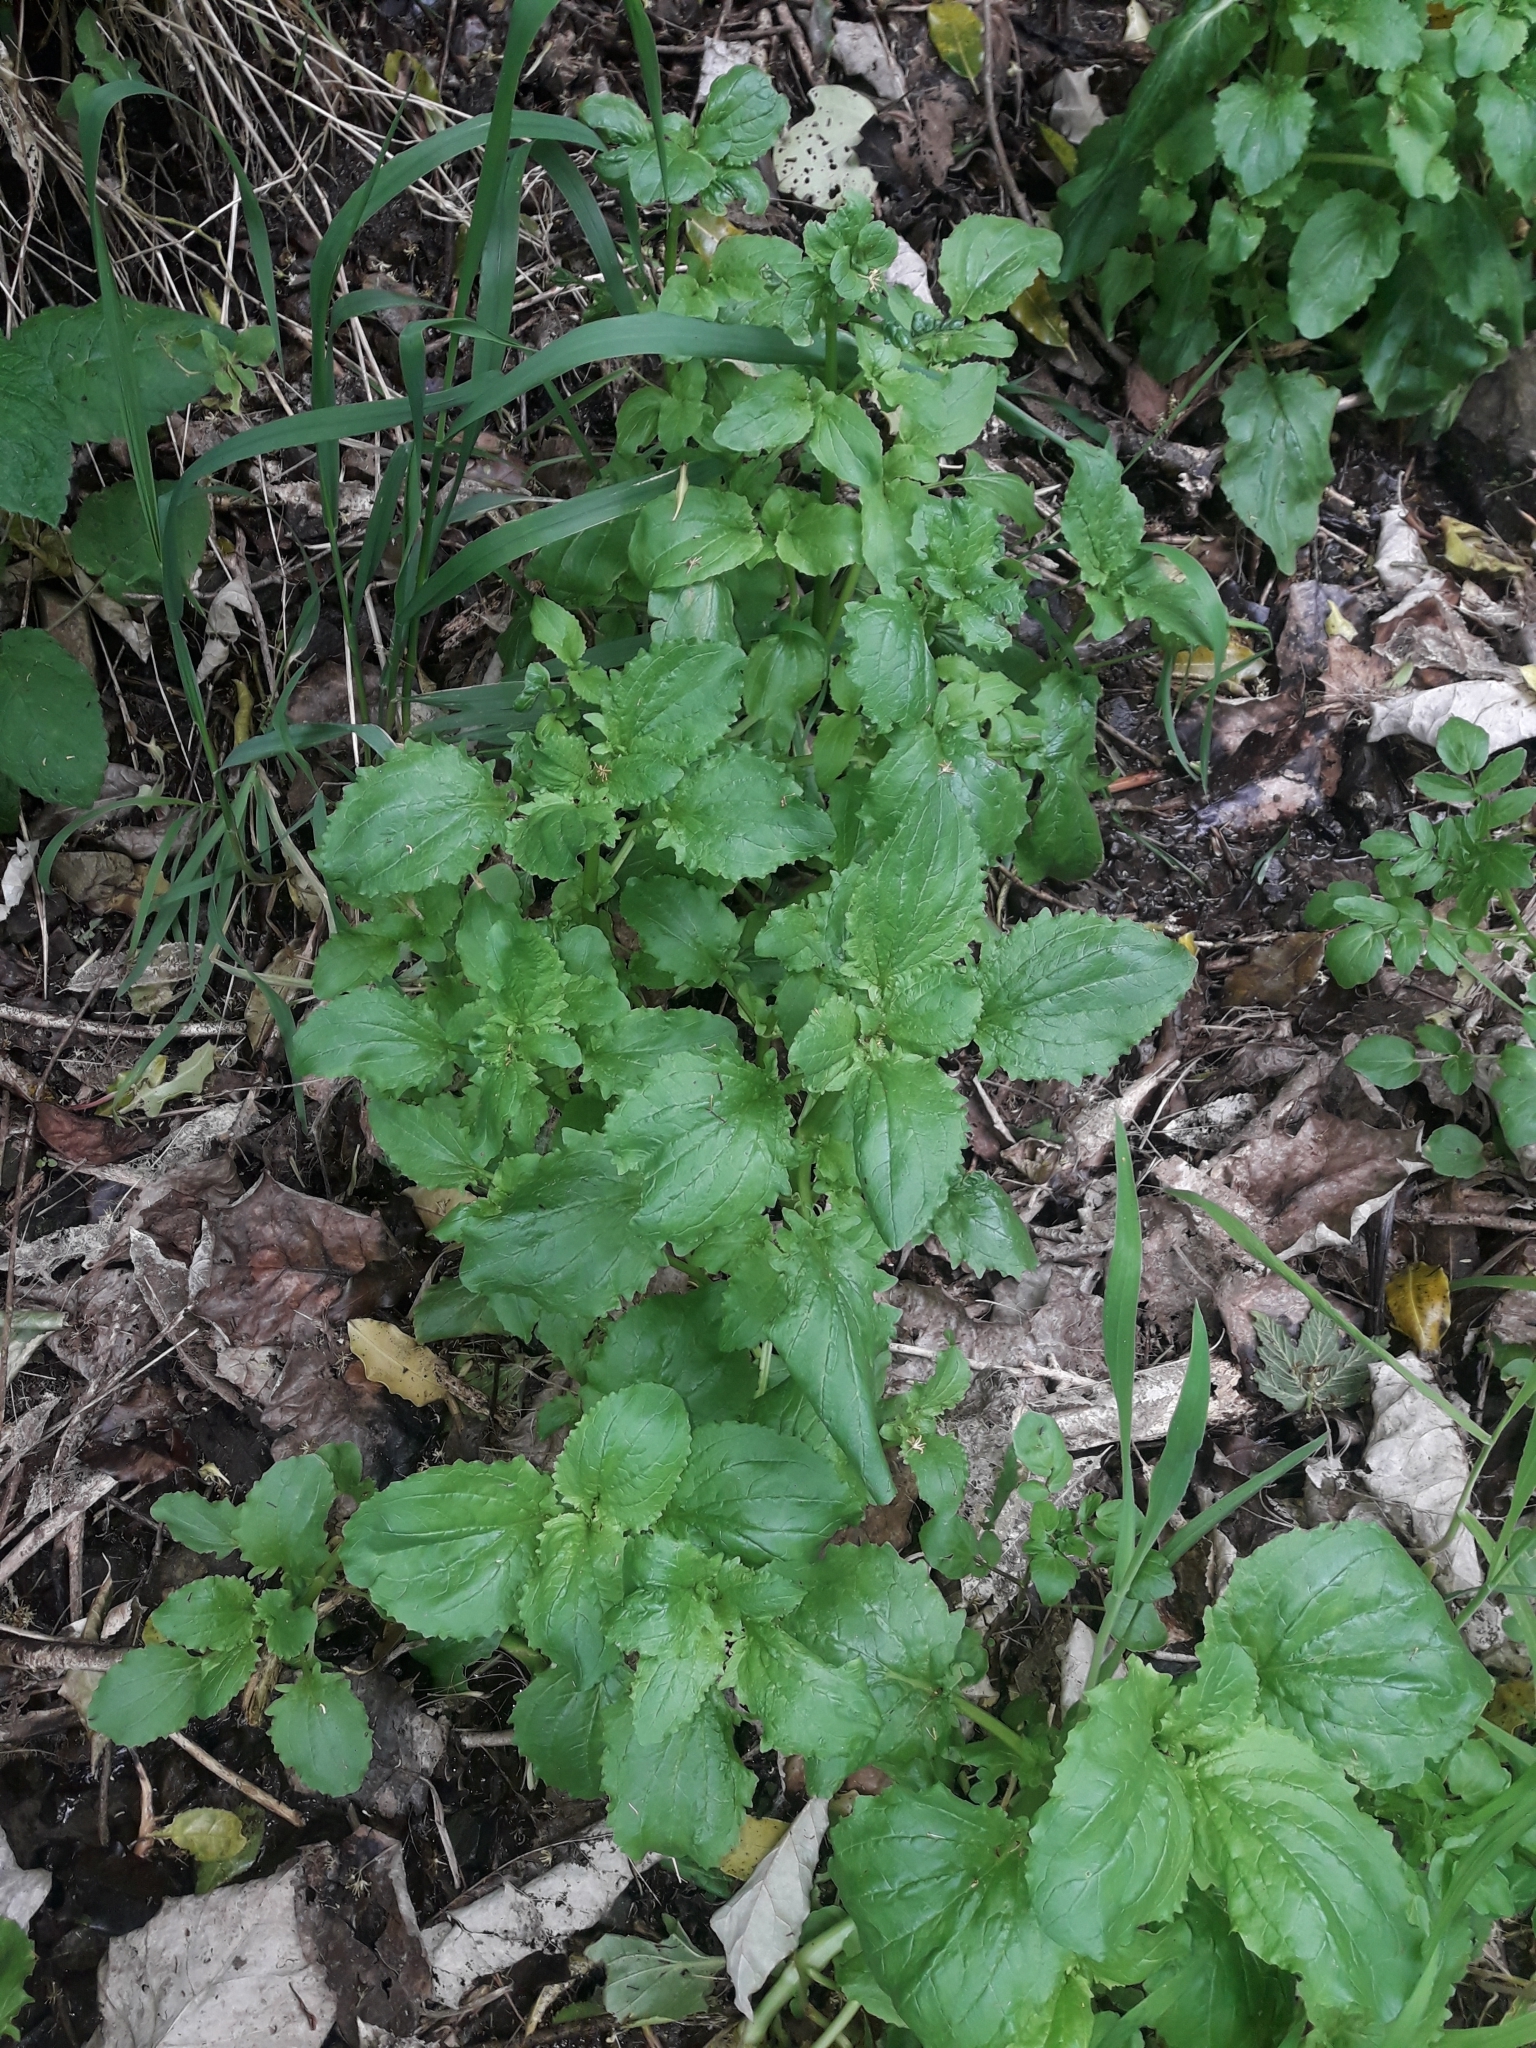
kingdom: Plantae
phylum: Tracheophyta
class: Magnoliopsida
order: Lamiales
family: Phrymaceae
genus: Erythranthe
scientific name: Erythranthe guttata
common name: Monkeyflower
